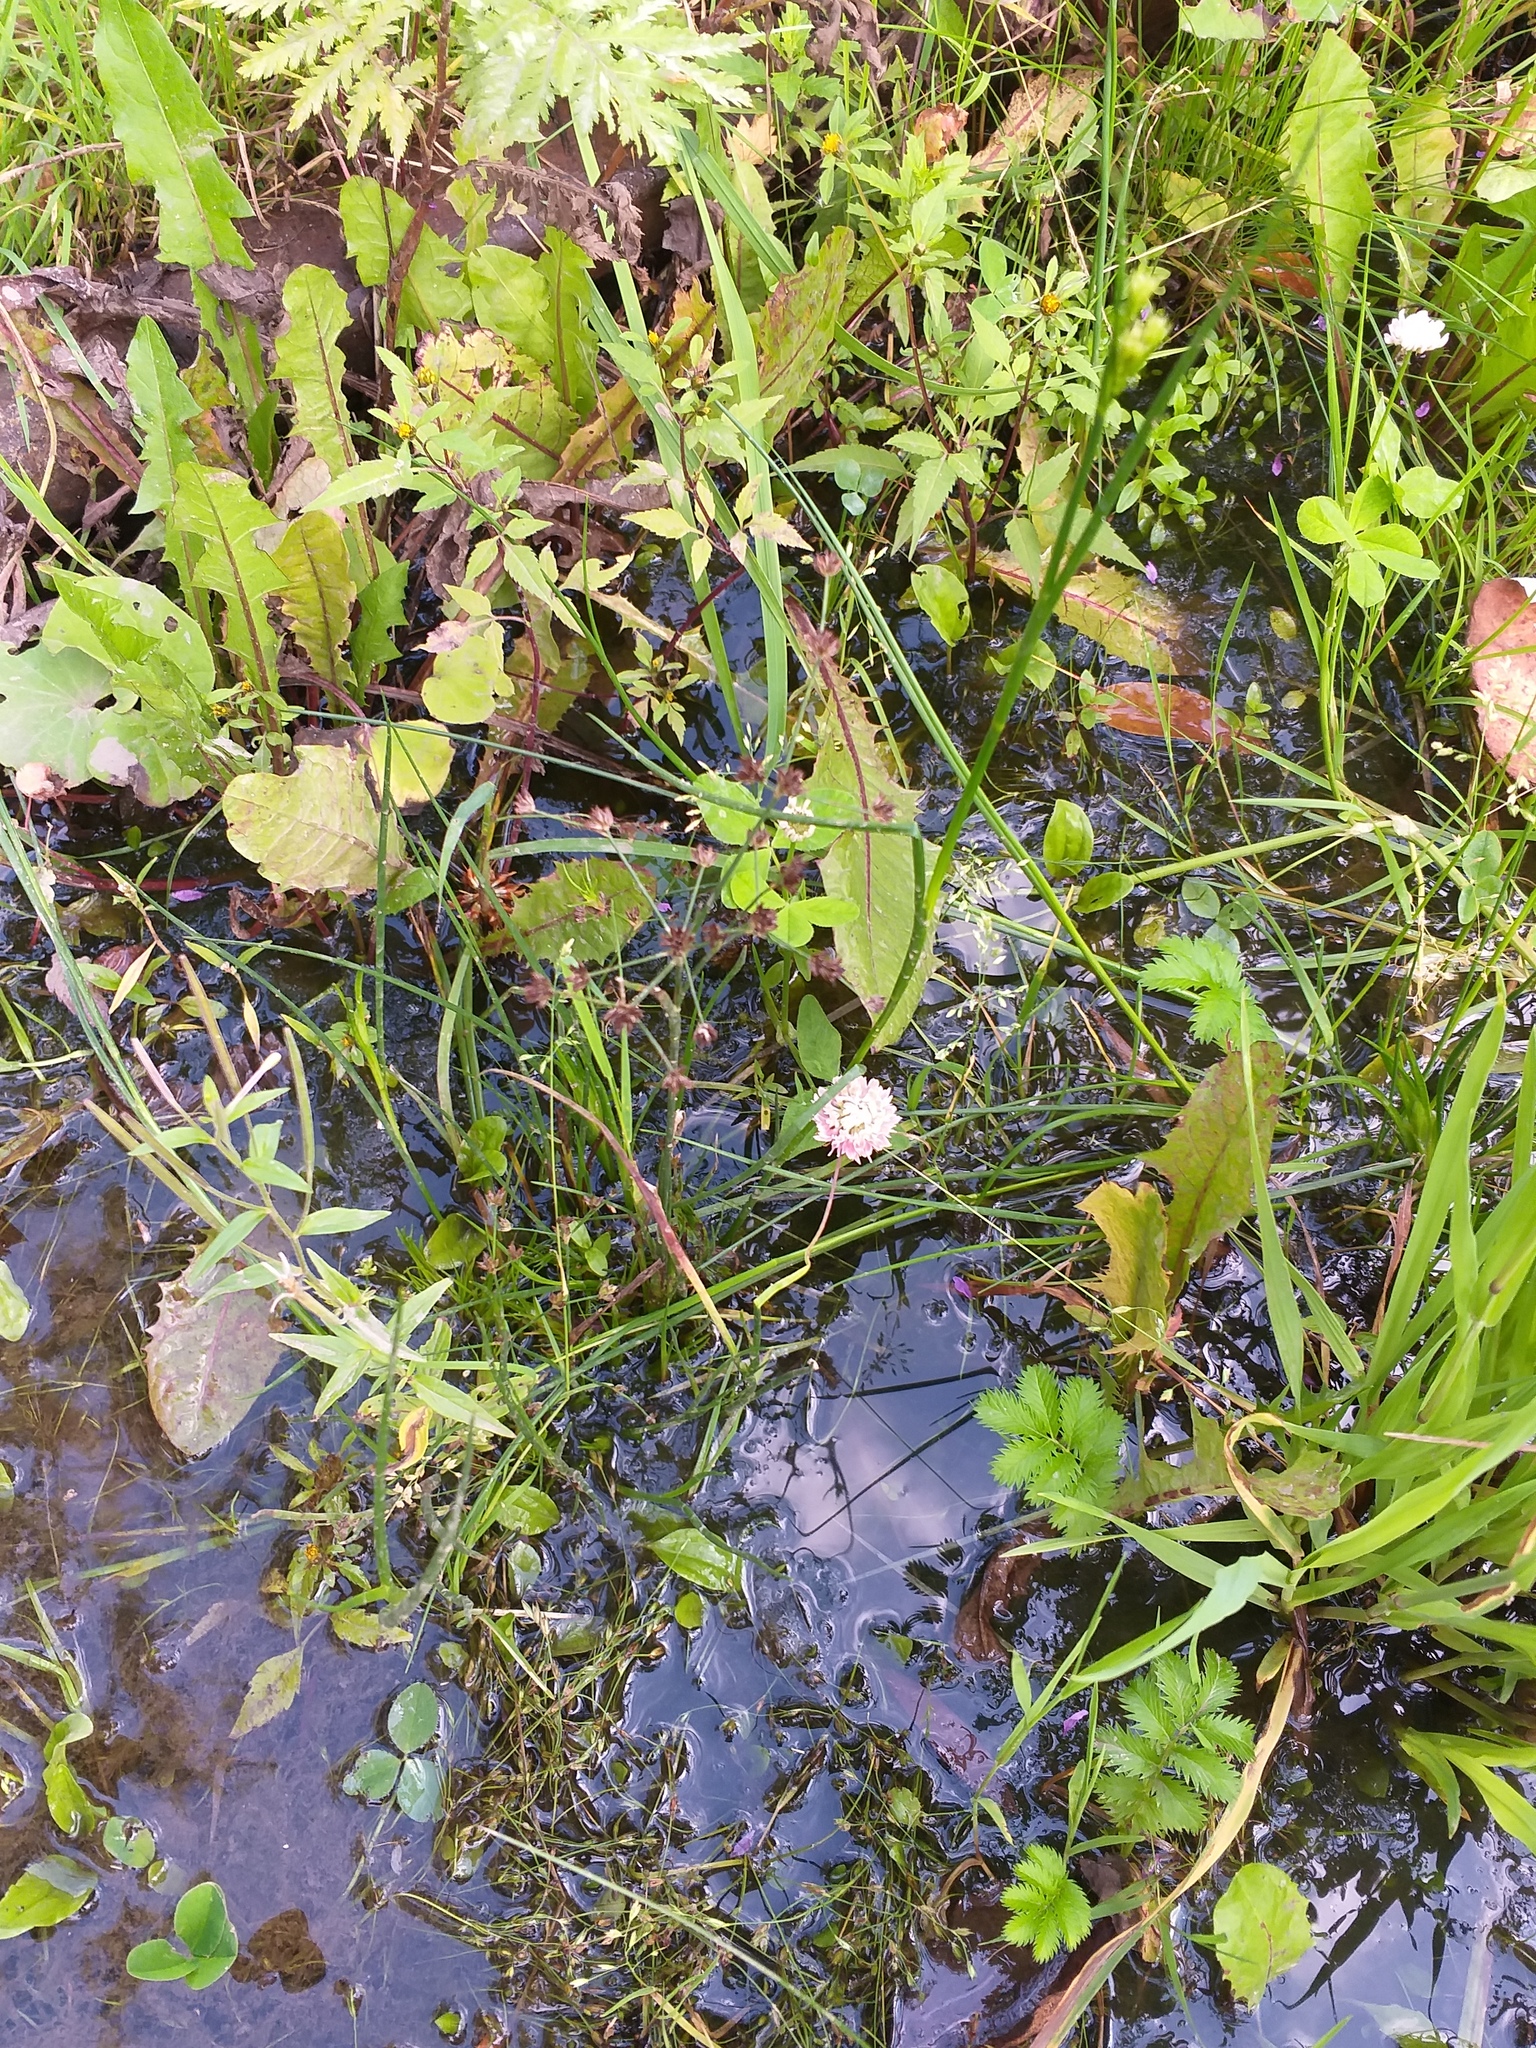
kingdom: Plantae
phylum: Tracheophyta
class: Liliopsida
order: Poales
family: Juncaceae
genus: Juncus
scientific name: Juncus articulatus
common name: Jointed rush
